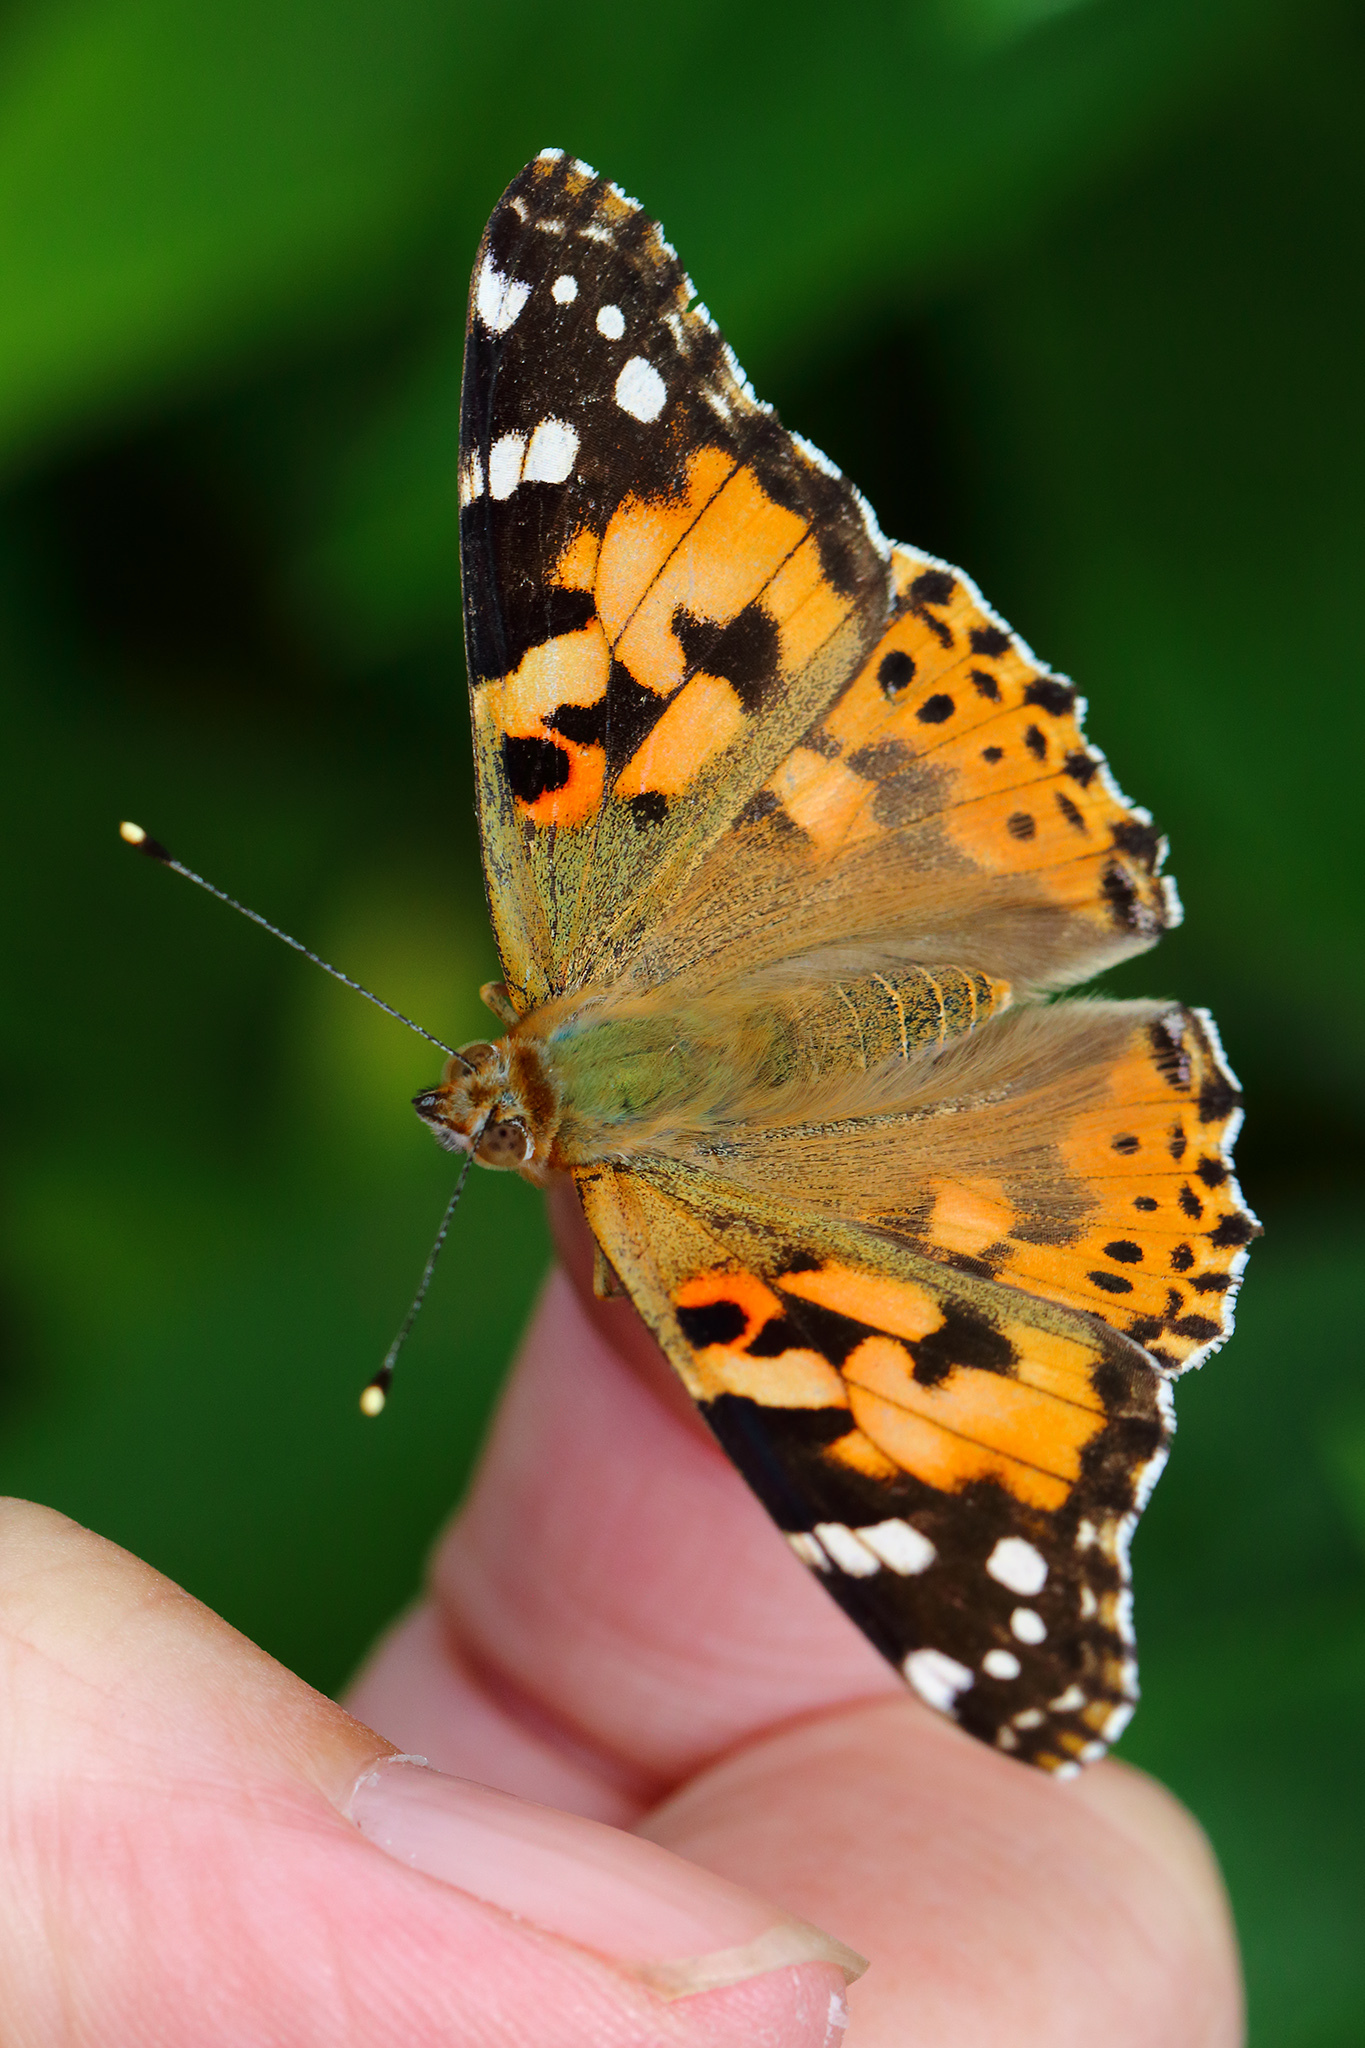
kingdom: Animalia
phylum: Arthropoda
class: Insecta
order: Lepidoptera
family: Nymphalidae
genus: Vanessa
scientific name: Vanessa cardui
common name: Painted lady
